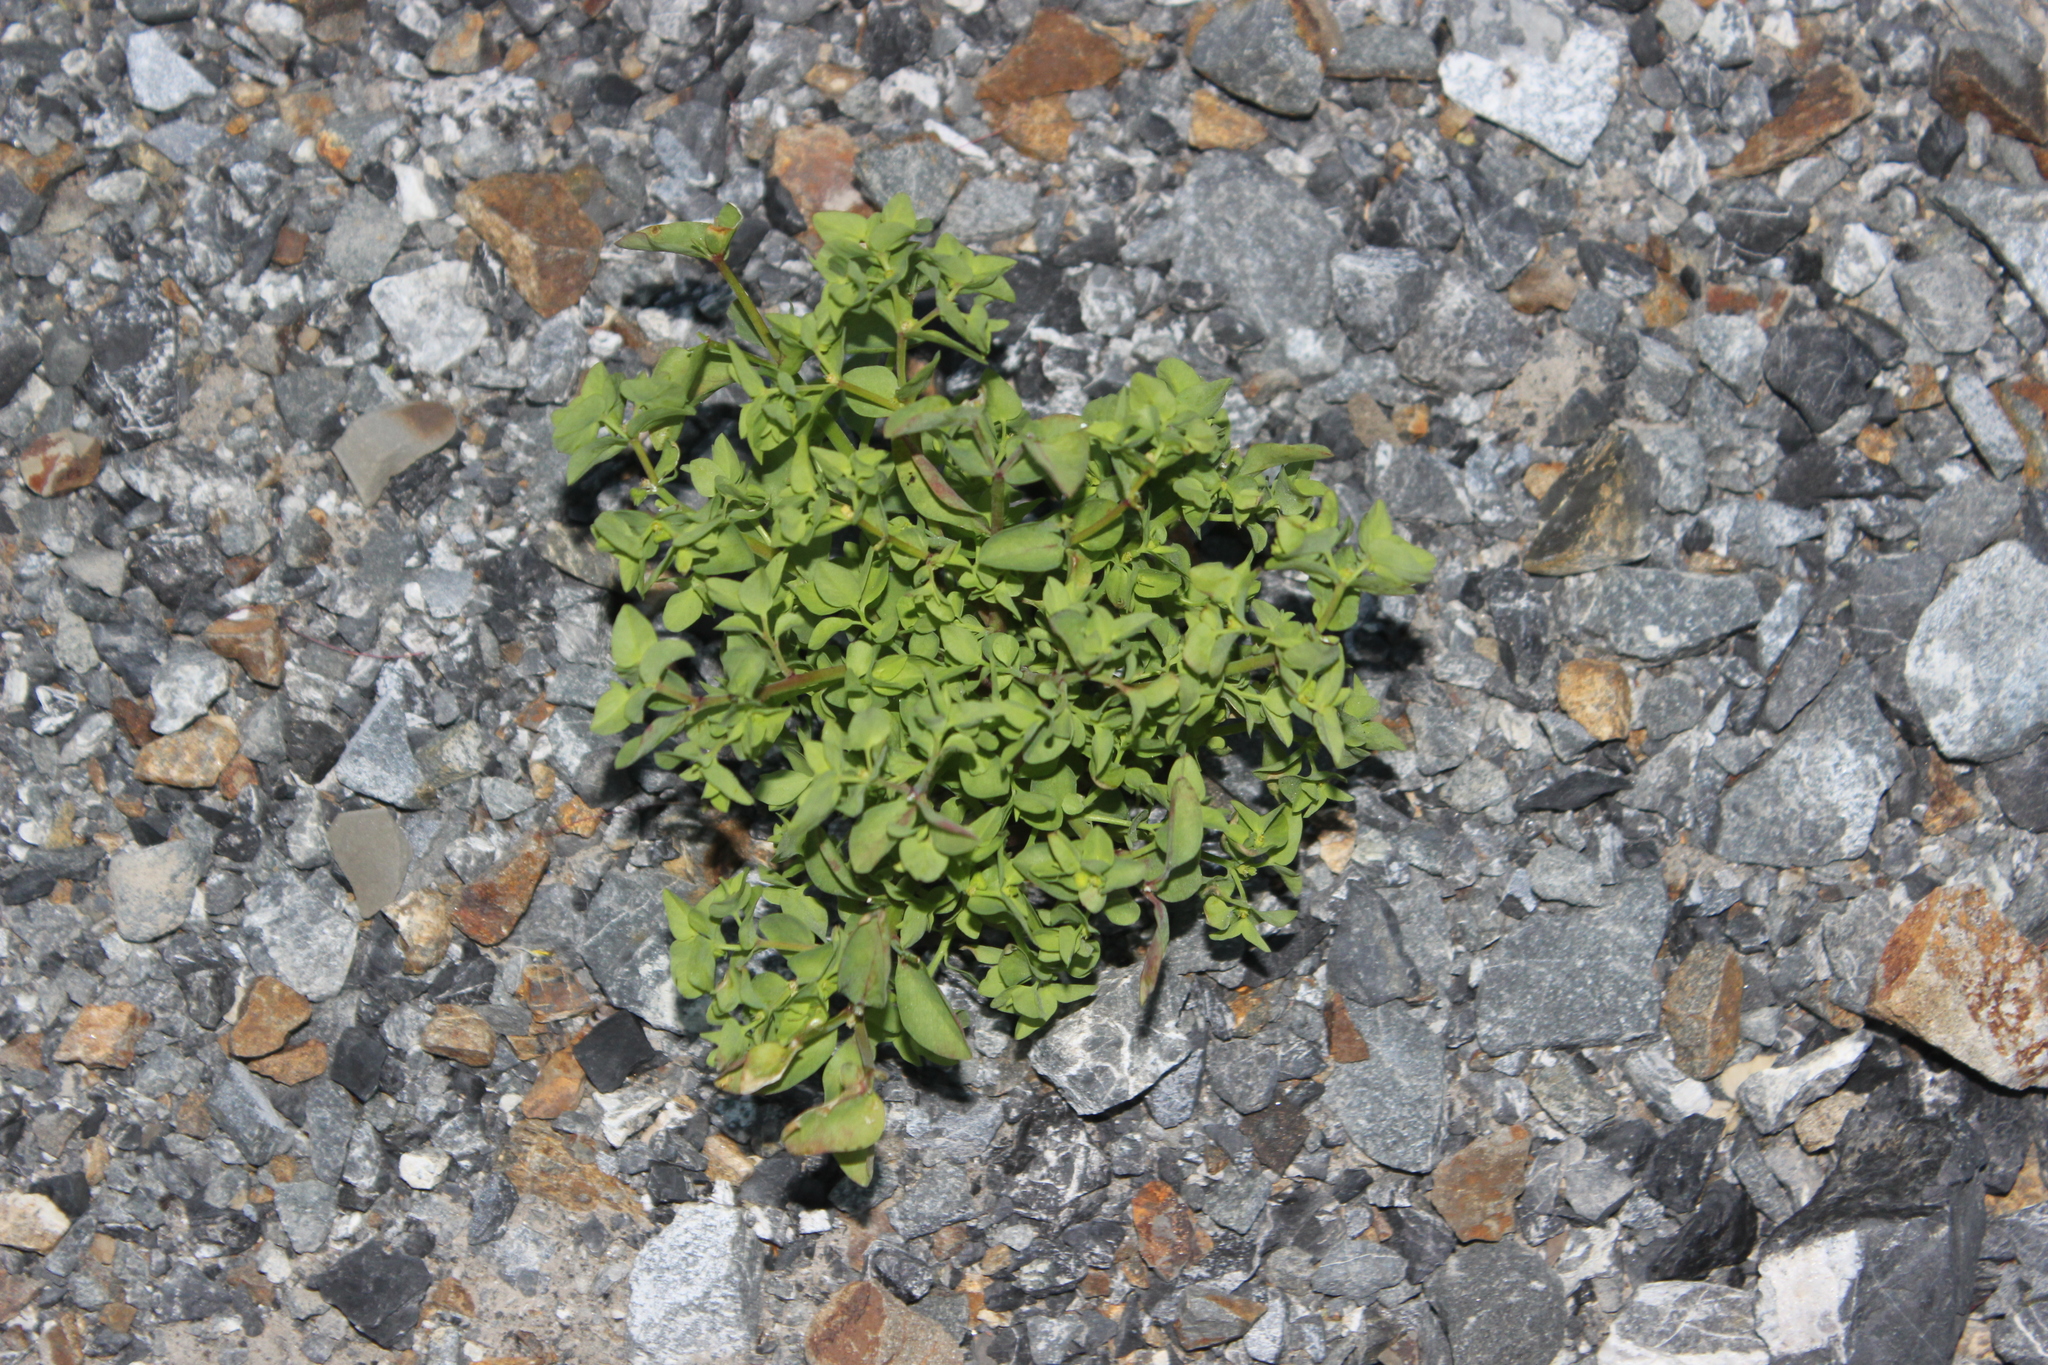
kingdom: Plantae
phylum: Tracheophyta
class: Magnoliopsida
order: Malpighiales
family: Euphorbiaceae
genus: Euphorbia
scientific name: Euphorbia peplus
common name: Petty spurge
